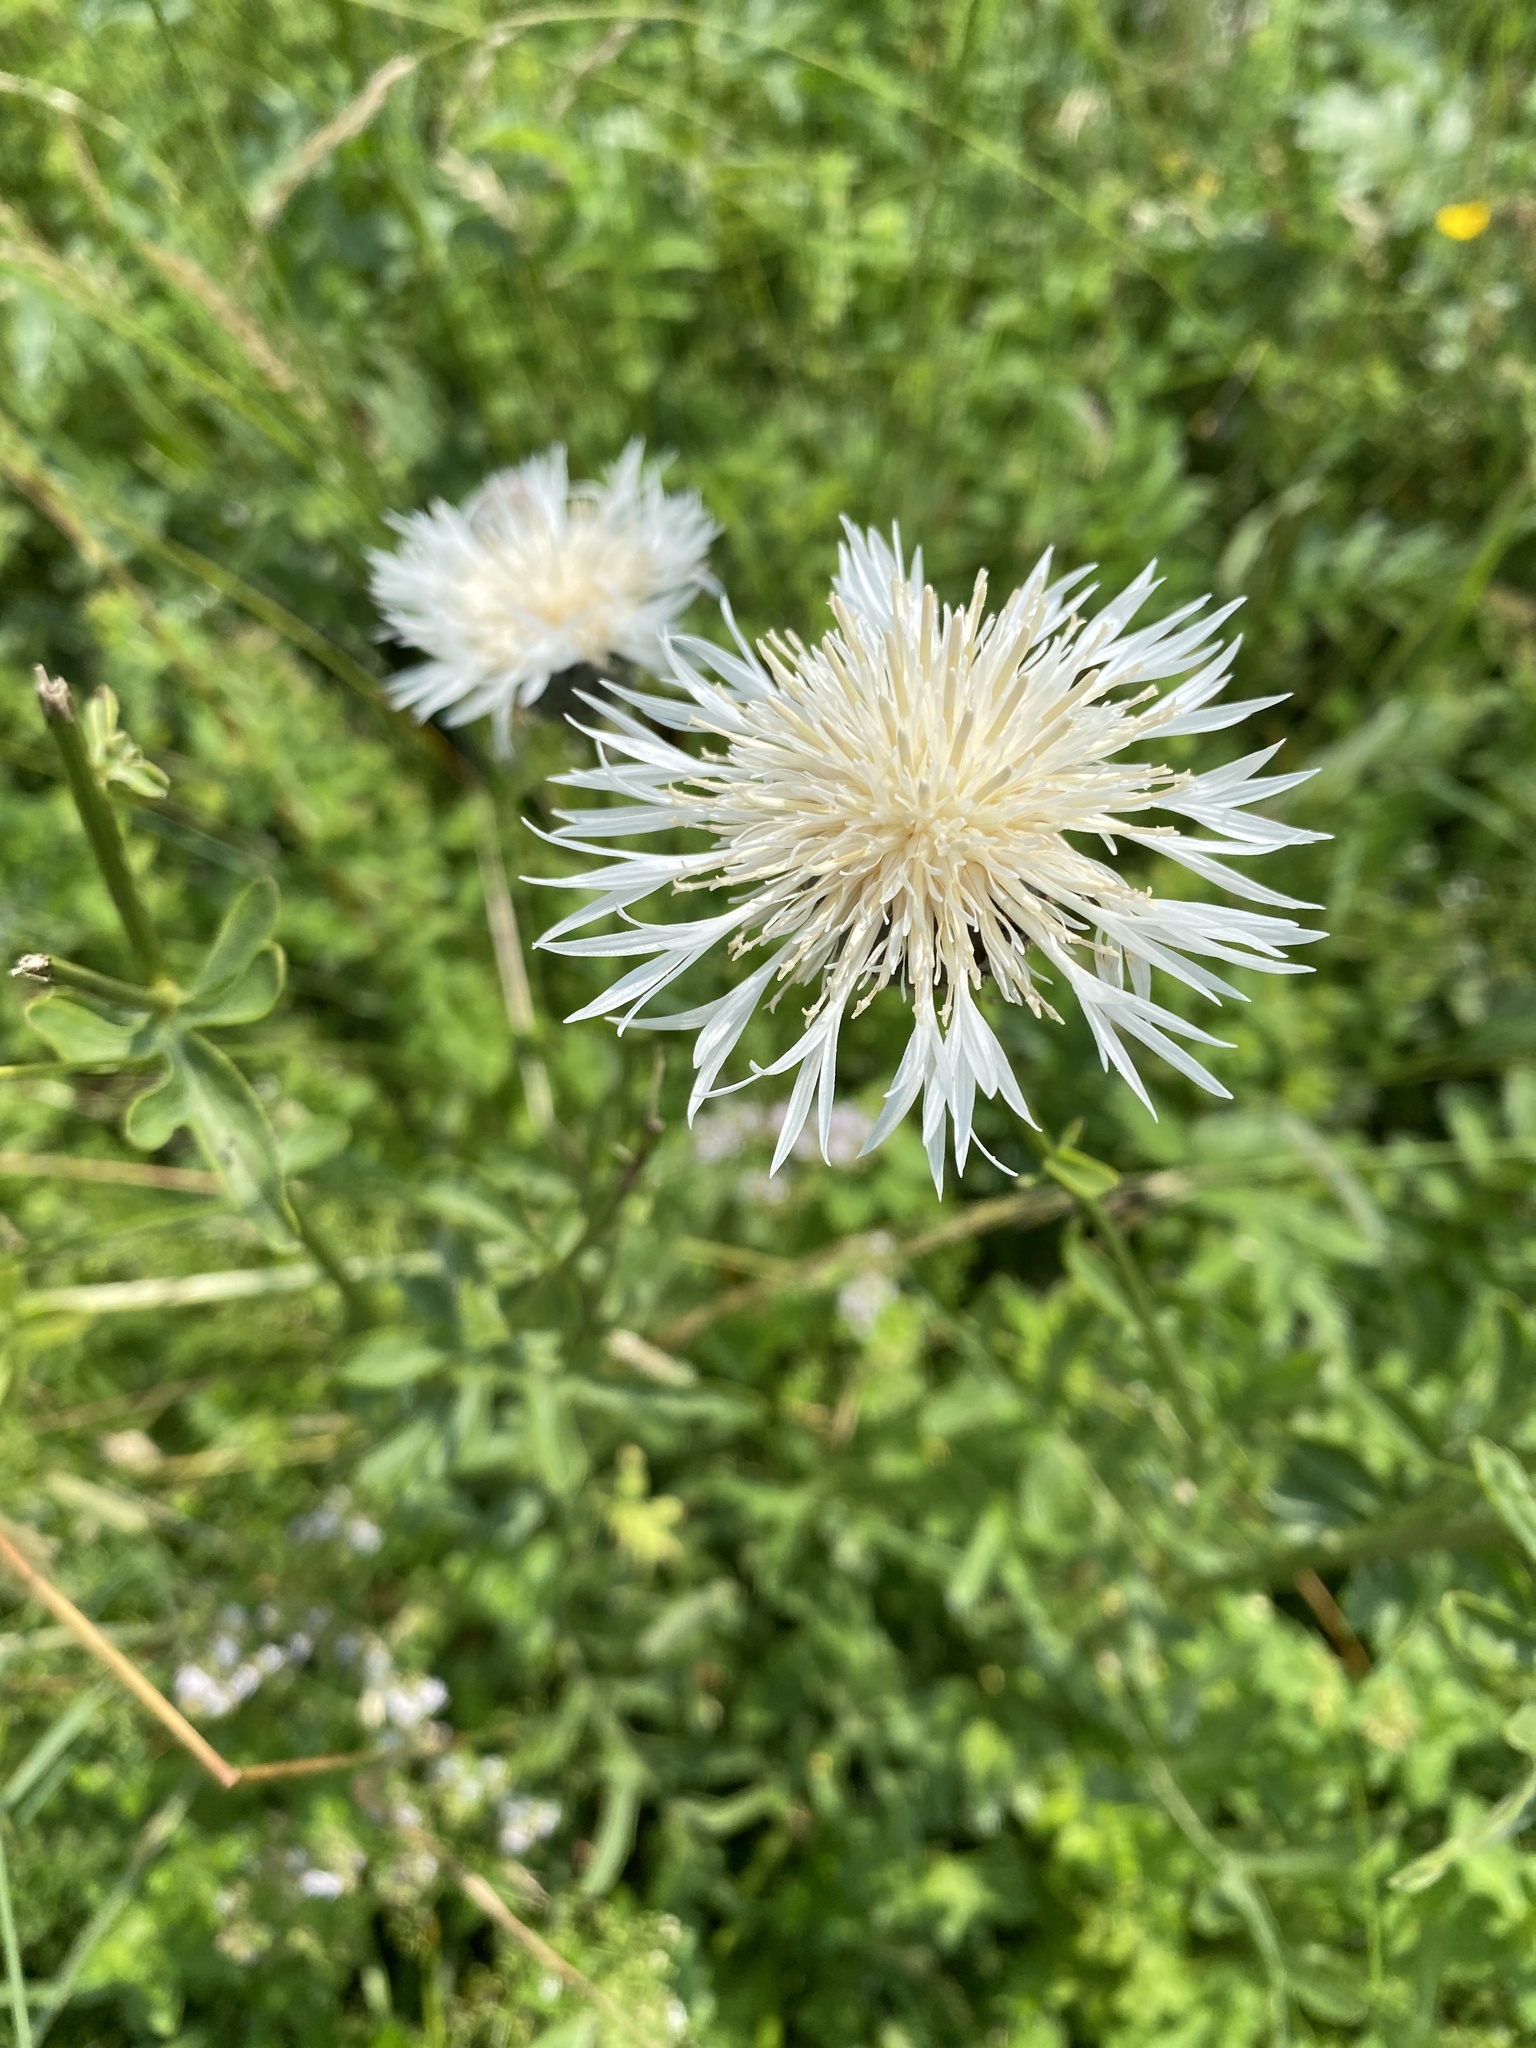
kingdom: Plantae
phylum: Tracheophyta
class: Magnoliopsida
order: Asterales
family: Asteraceae
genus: Centaurea
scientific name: Centaurea scabiosa
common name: Greater knapweed
